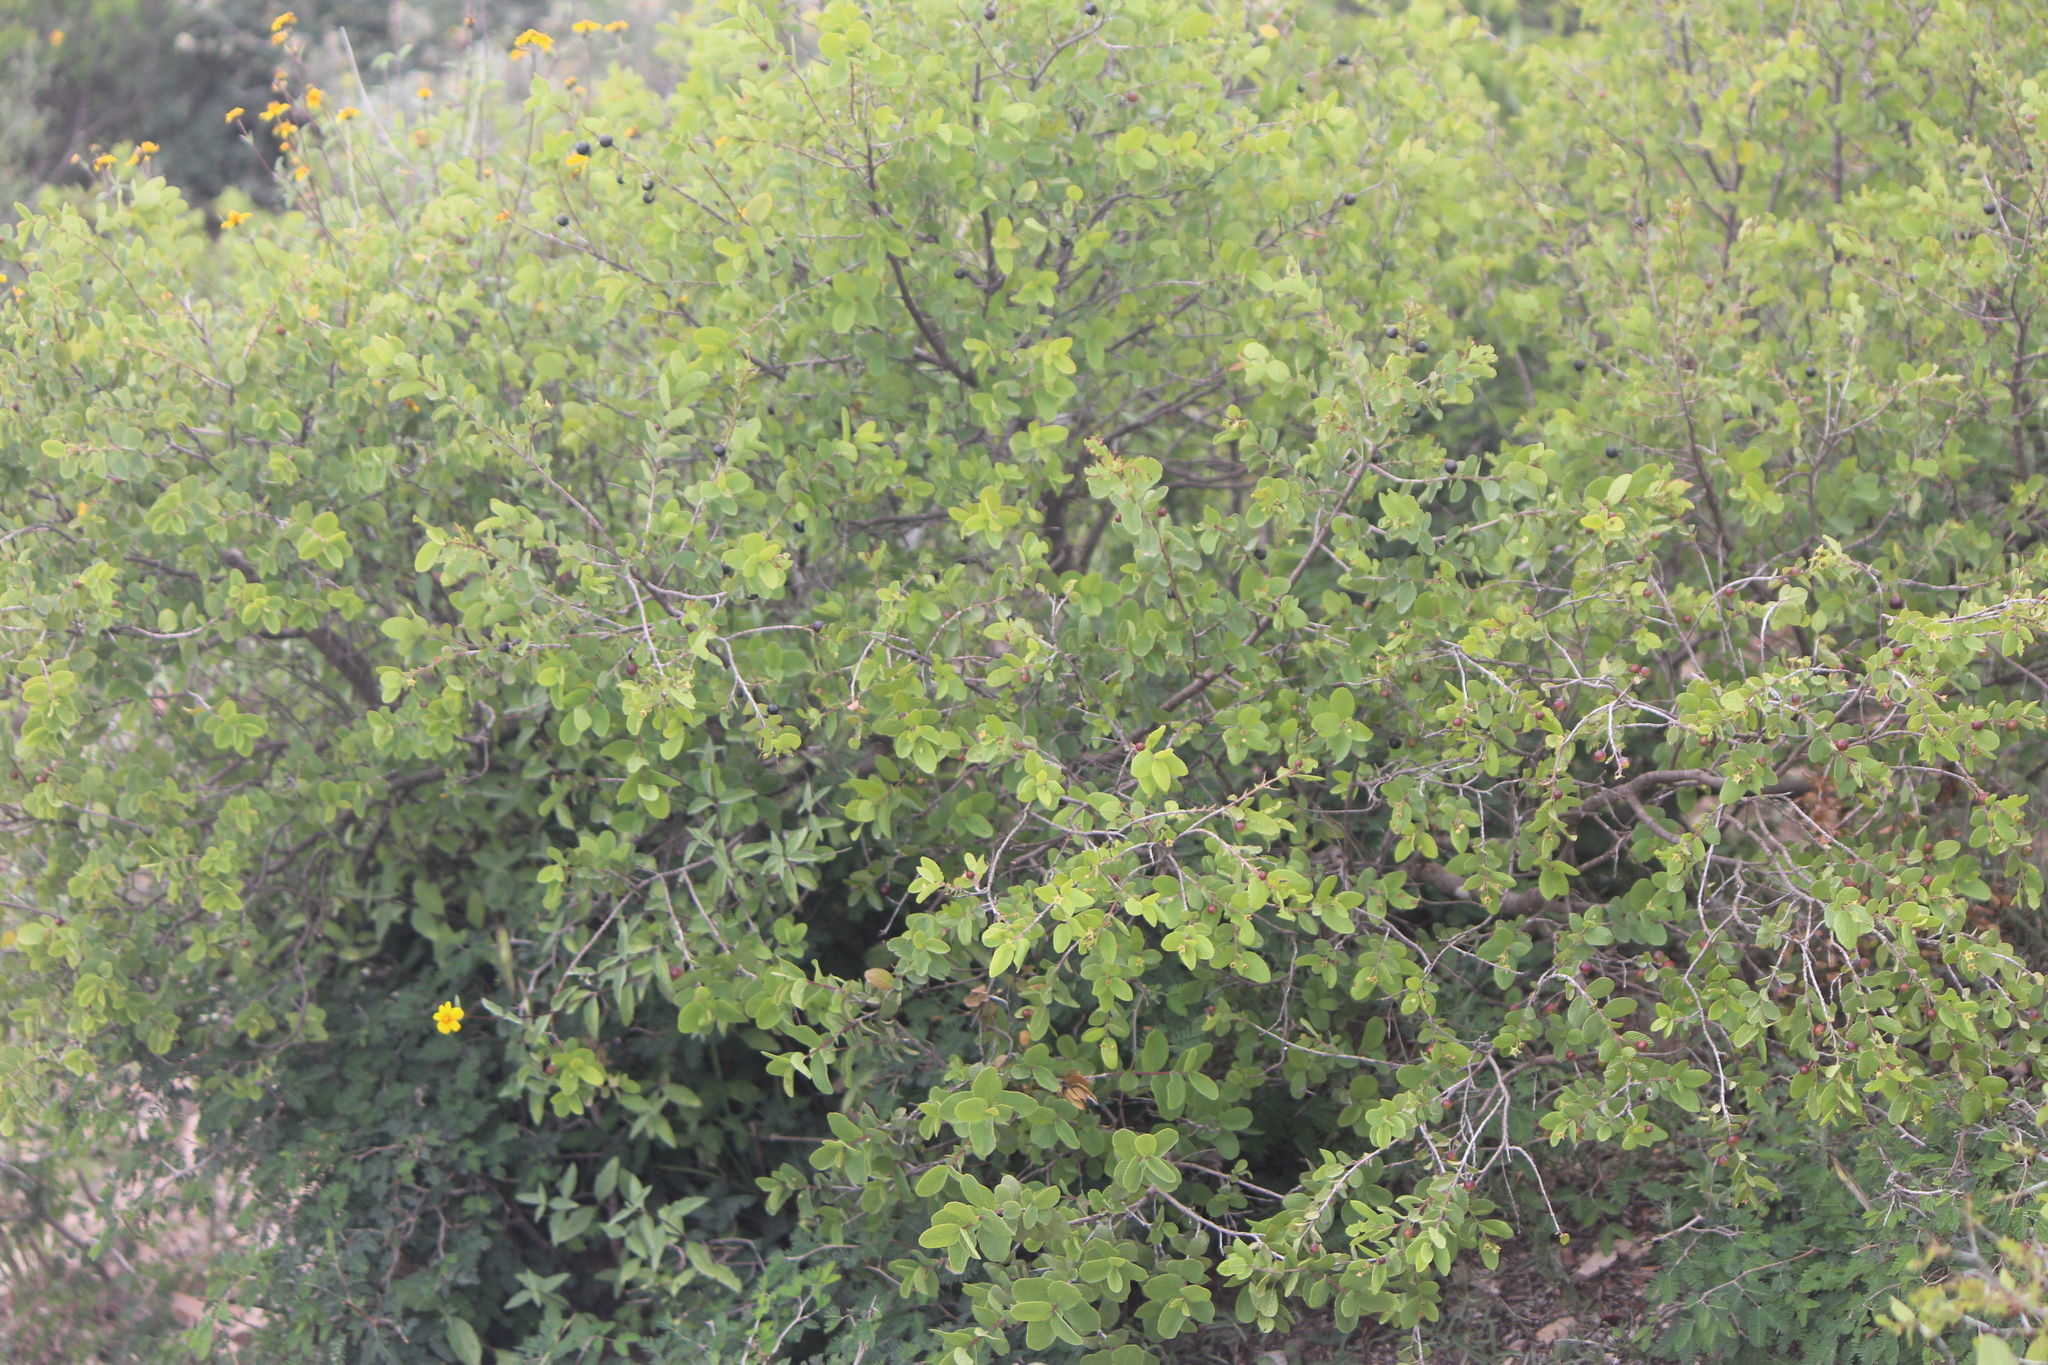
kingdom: Plantae
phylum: Tracheophyta
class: Magnoliopsida
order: Rosales
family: Rhamnaceae
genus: Karwinskia
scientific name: Karwinskia subcordata
